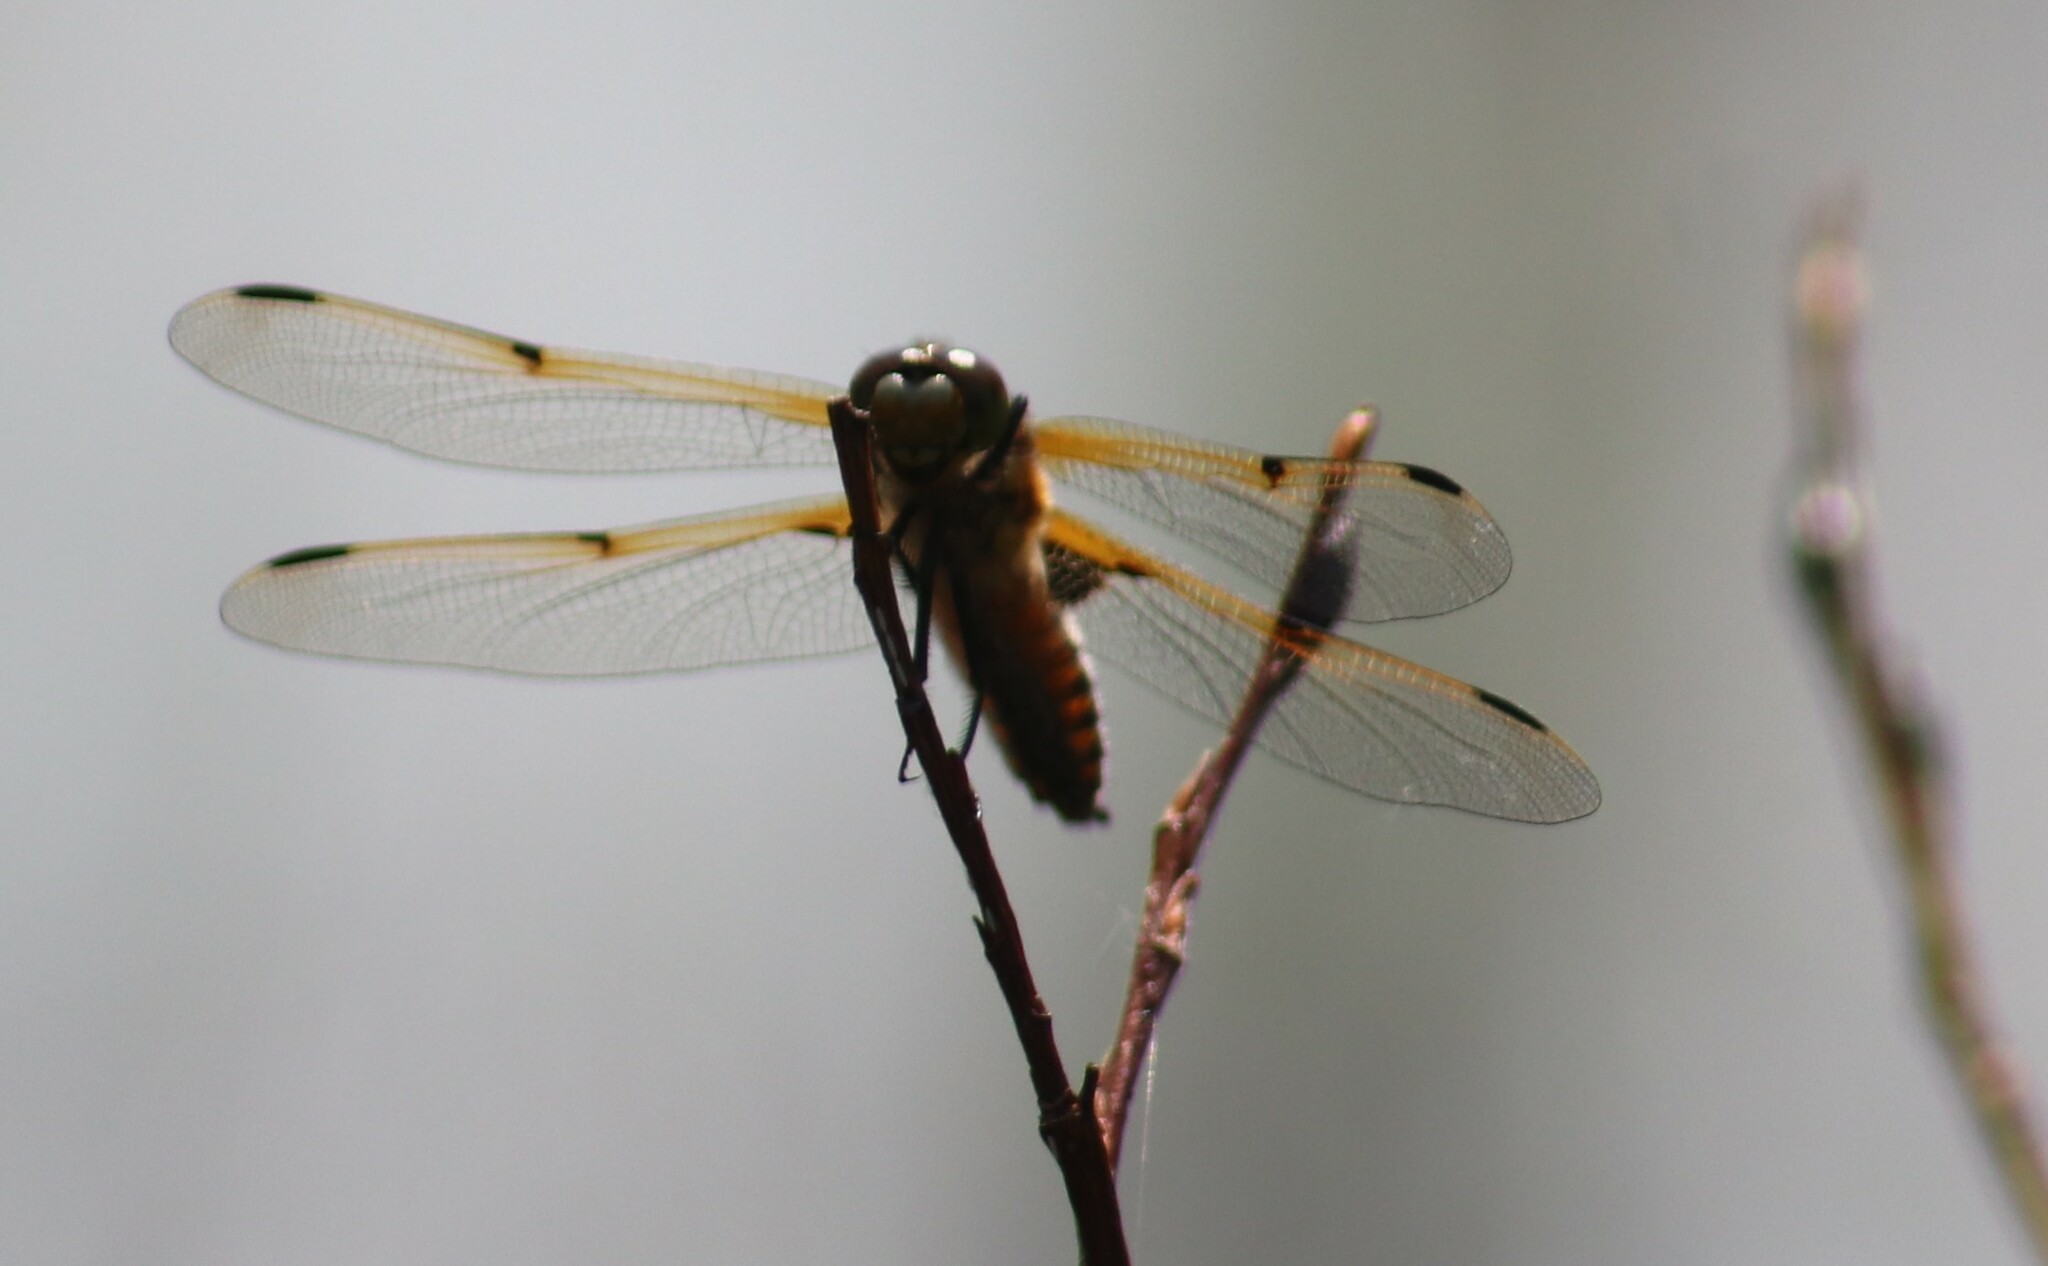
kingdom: Animalia
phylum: Arthropoda
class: Insecta
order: Odonata
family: Libellulidae
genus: Libellula
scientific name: Libellula quadrimaculata
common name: Four-spotted chaser
